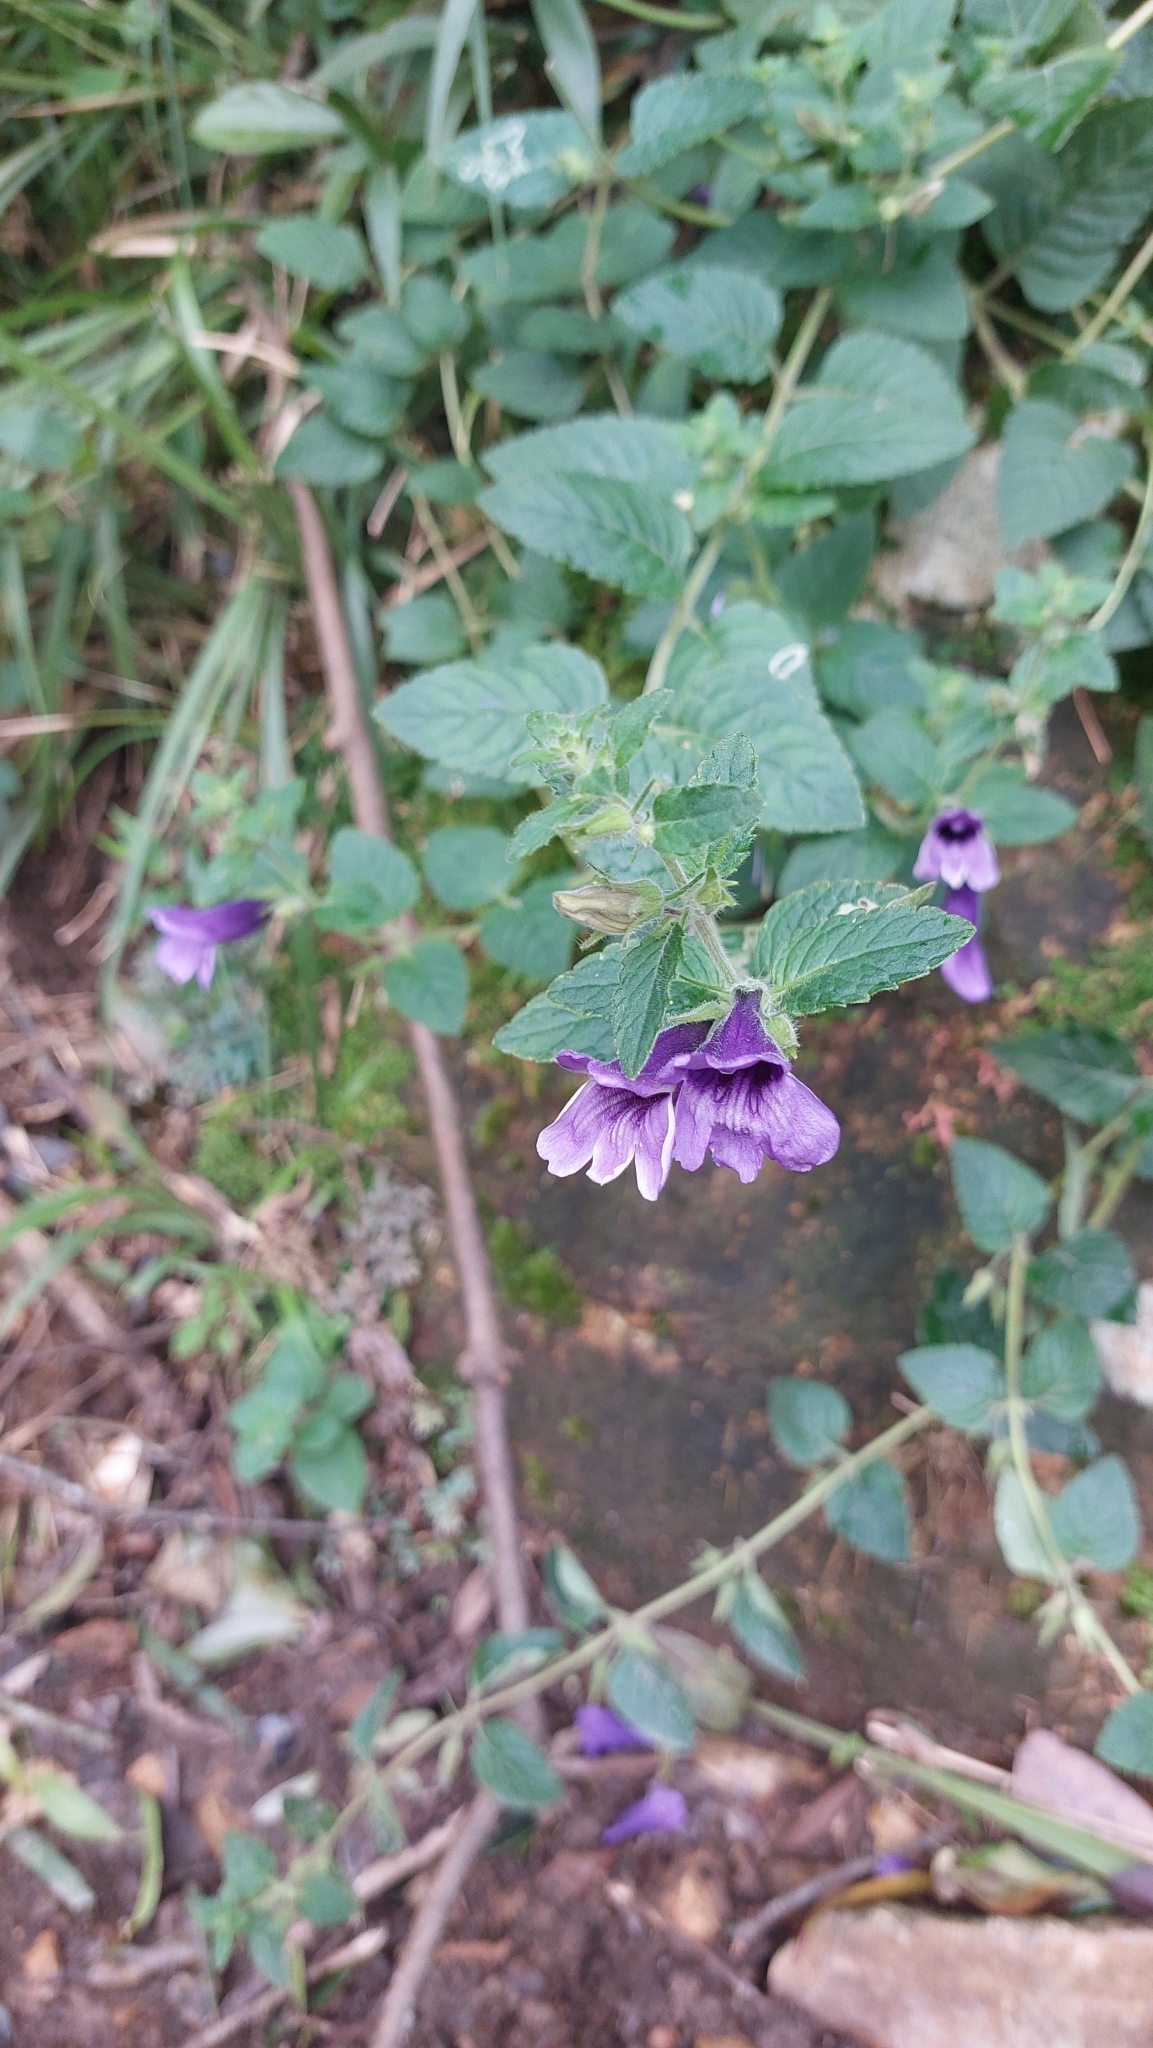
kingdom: Plantae
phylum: Tracheophyta
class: Magnoliopsida
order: Lamiales
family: Plantaginaceae
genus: Adenosma
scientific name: Adenosma glutinosa
